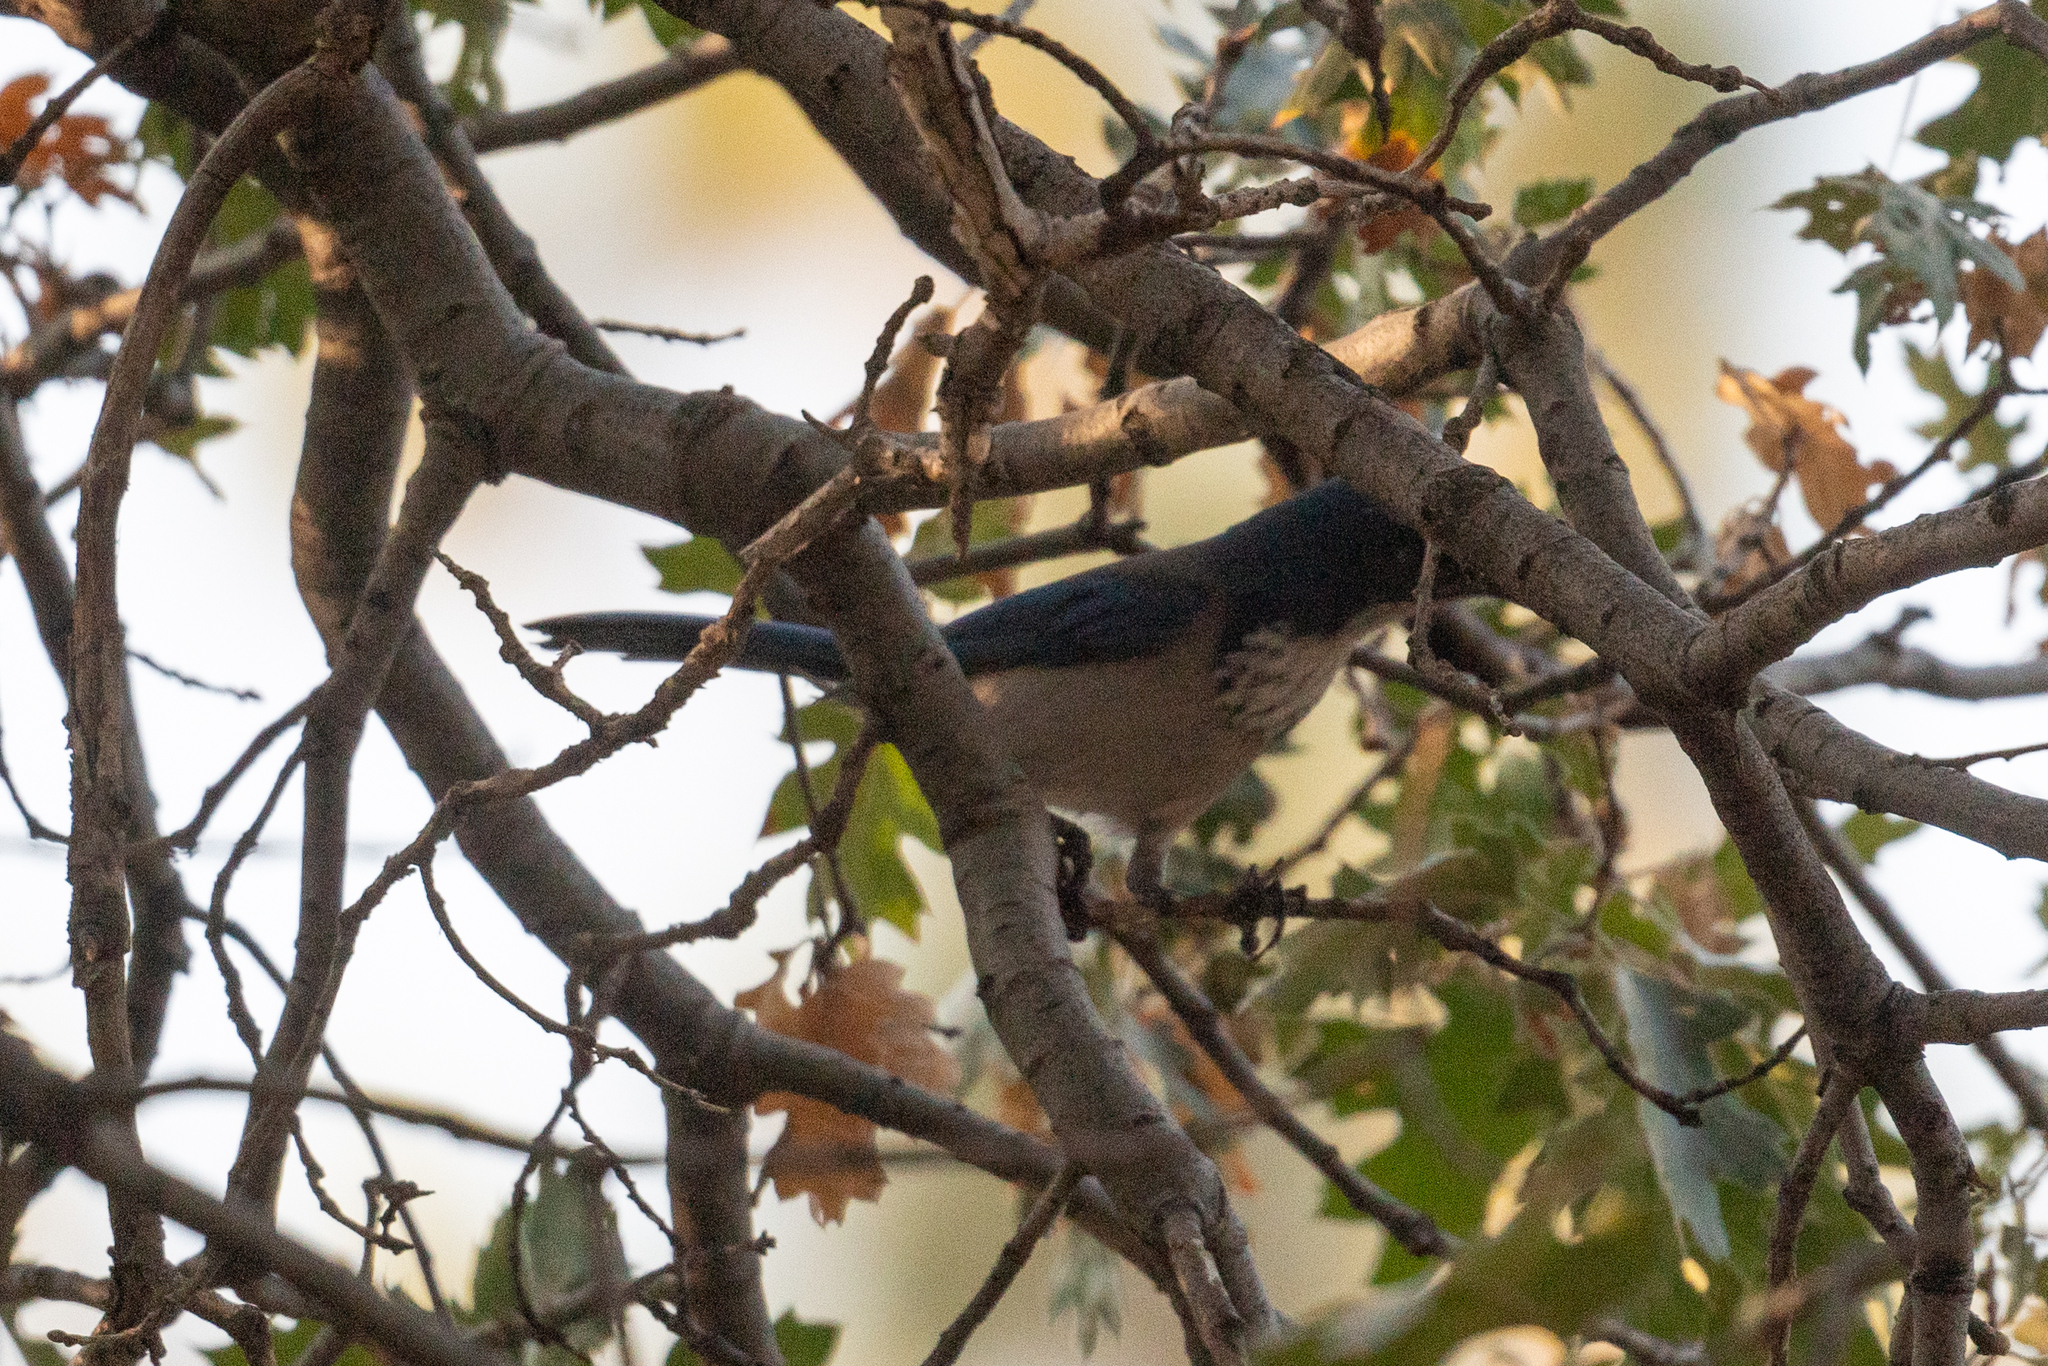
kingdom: Animalia
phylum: Chordata
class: Aves
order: Passeriformes
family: Corvidae
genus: Aphelocoma
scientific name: Aphelocoma californica
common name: California scrub-jay
